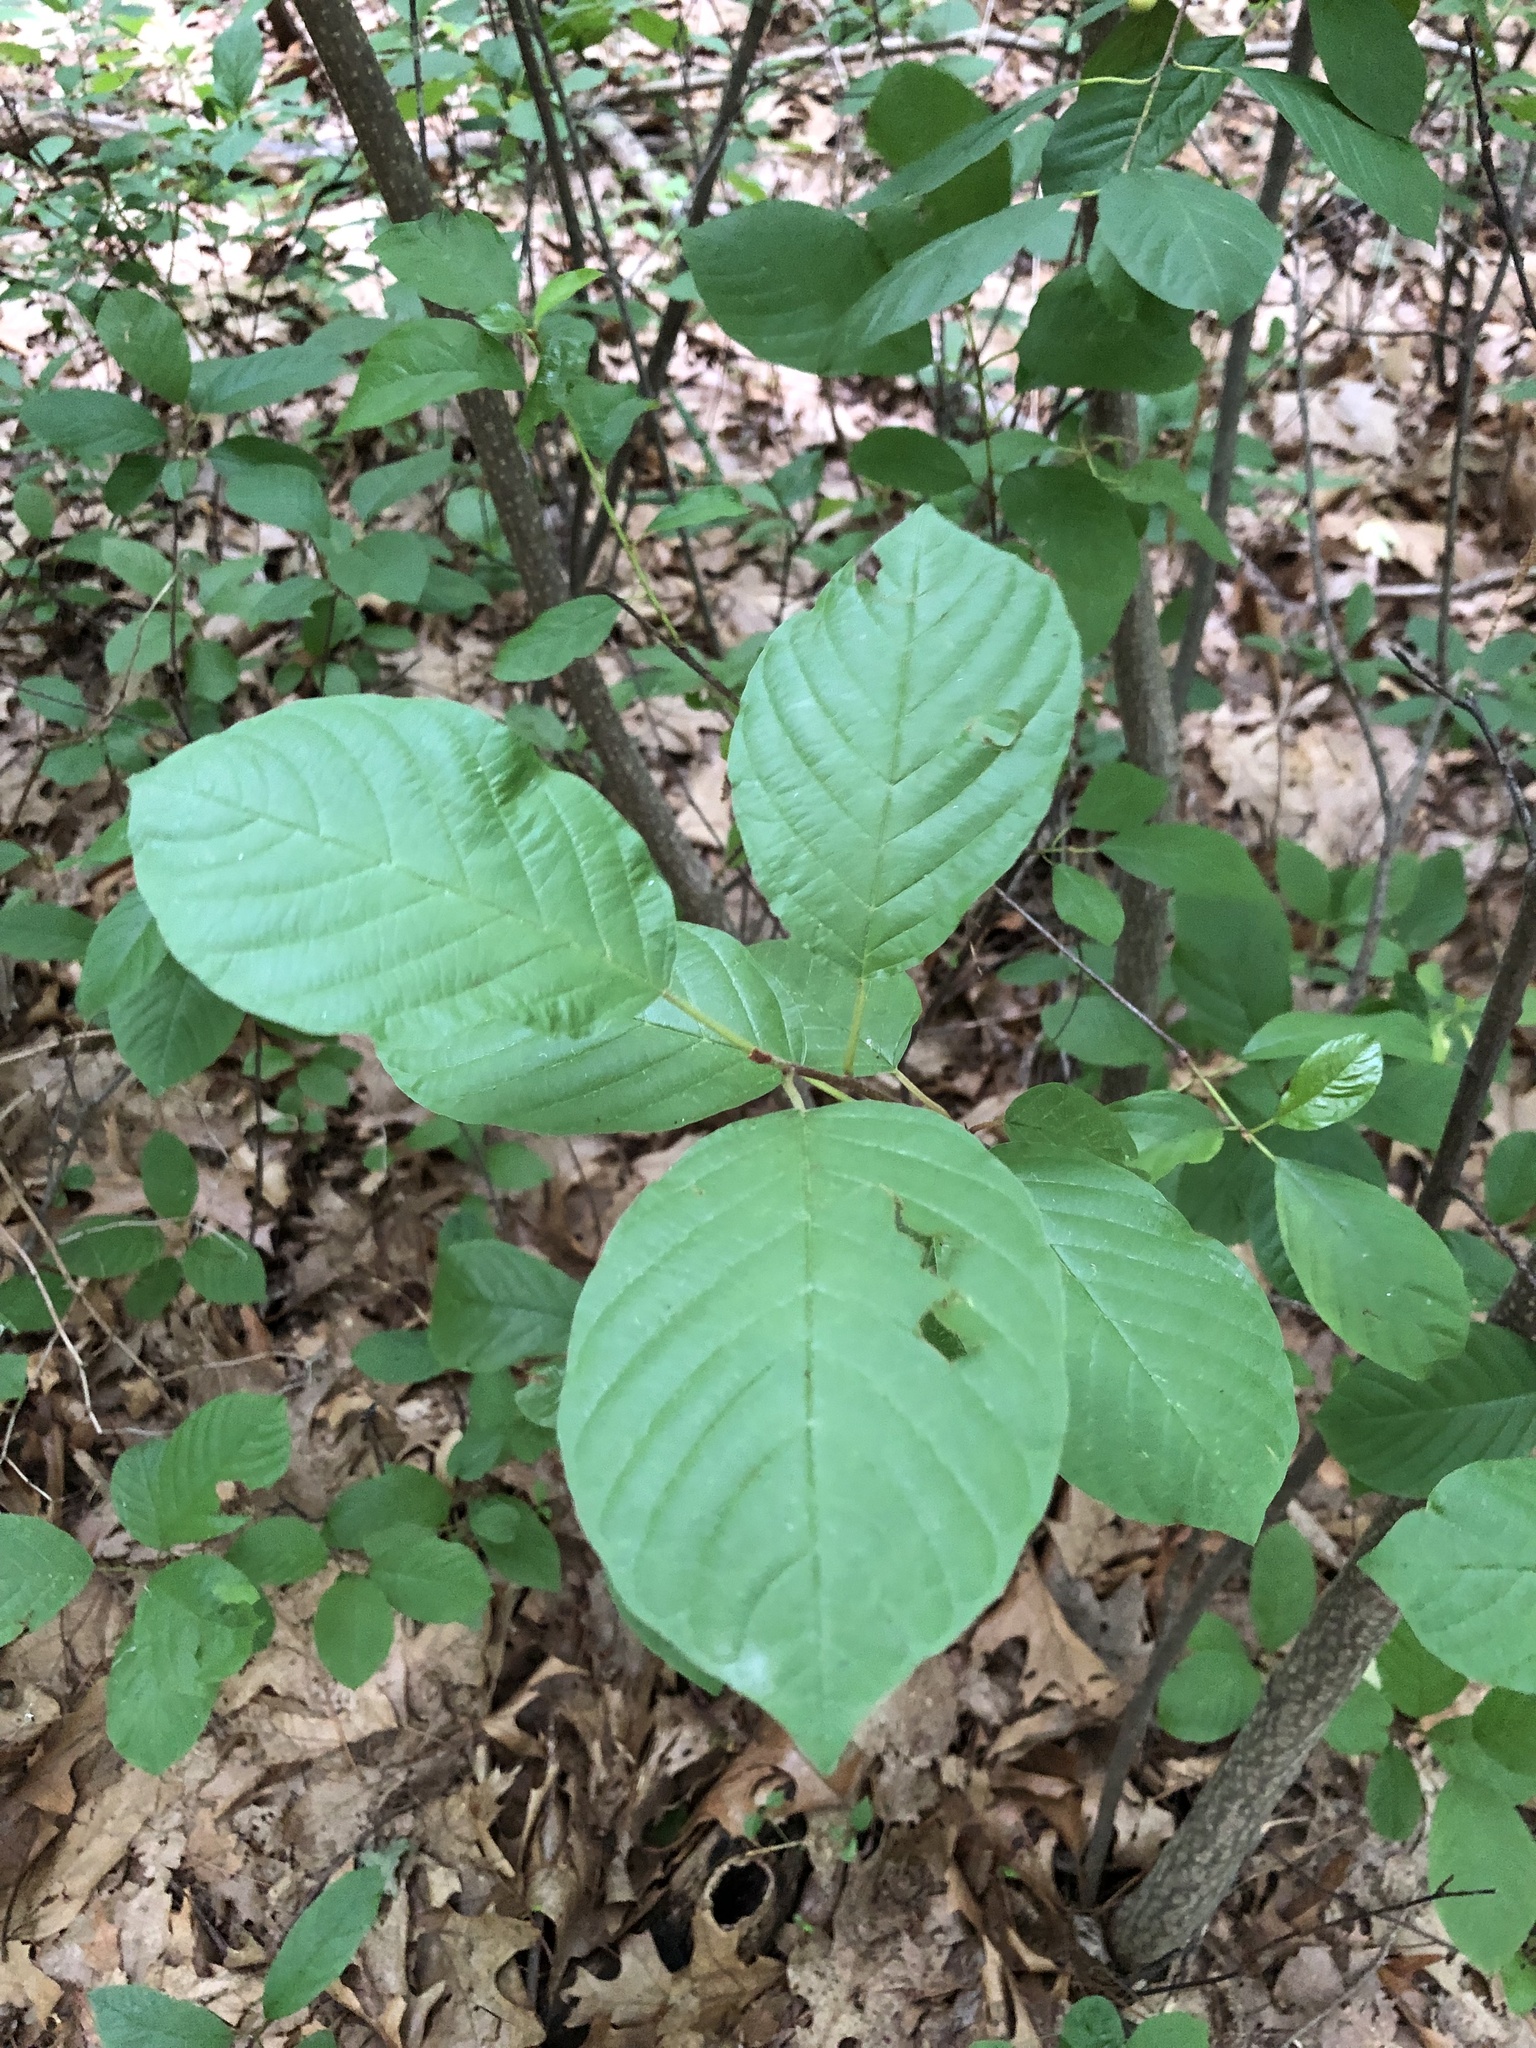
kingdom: Plantae
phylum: Tracheophyta
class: Magnoliopsida
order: Rosales
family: Rhamnaceae
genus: Frangula
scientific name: Frangula alnus
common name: Alder buckthorn
